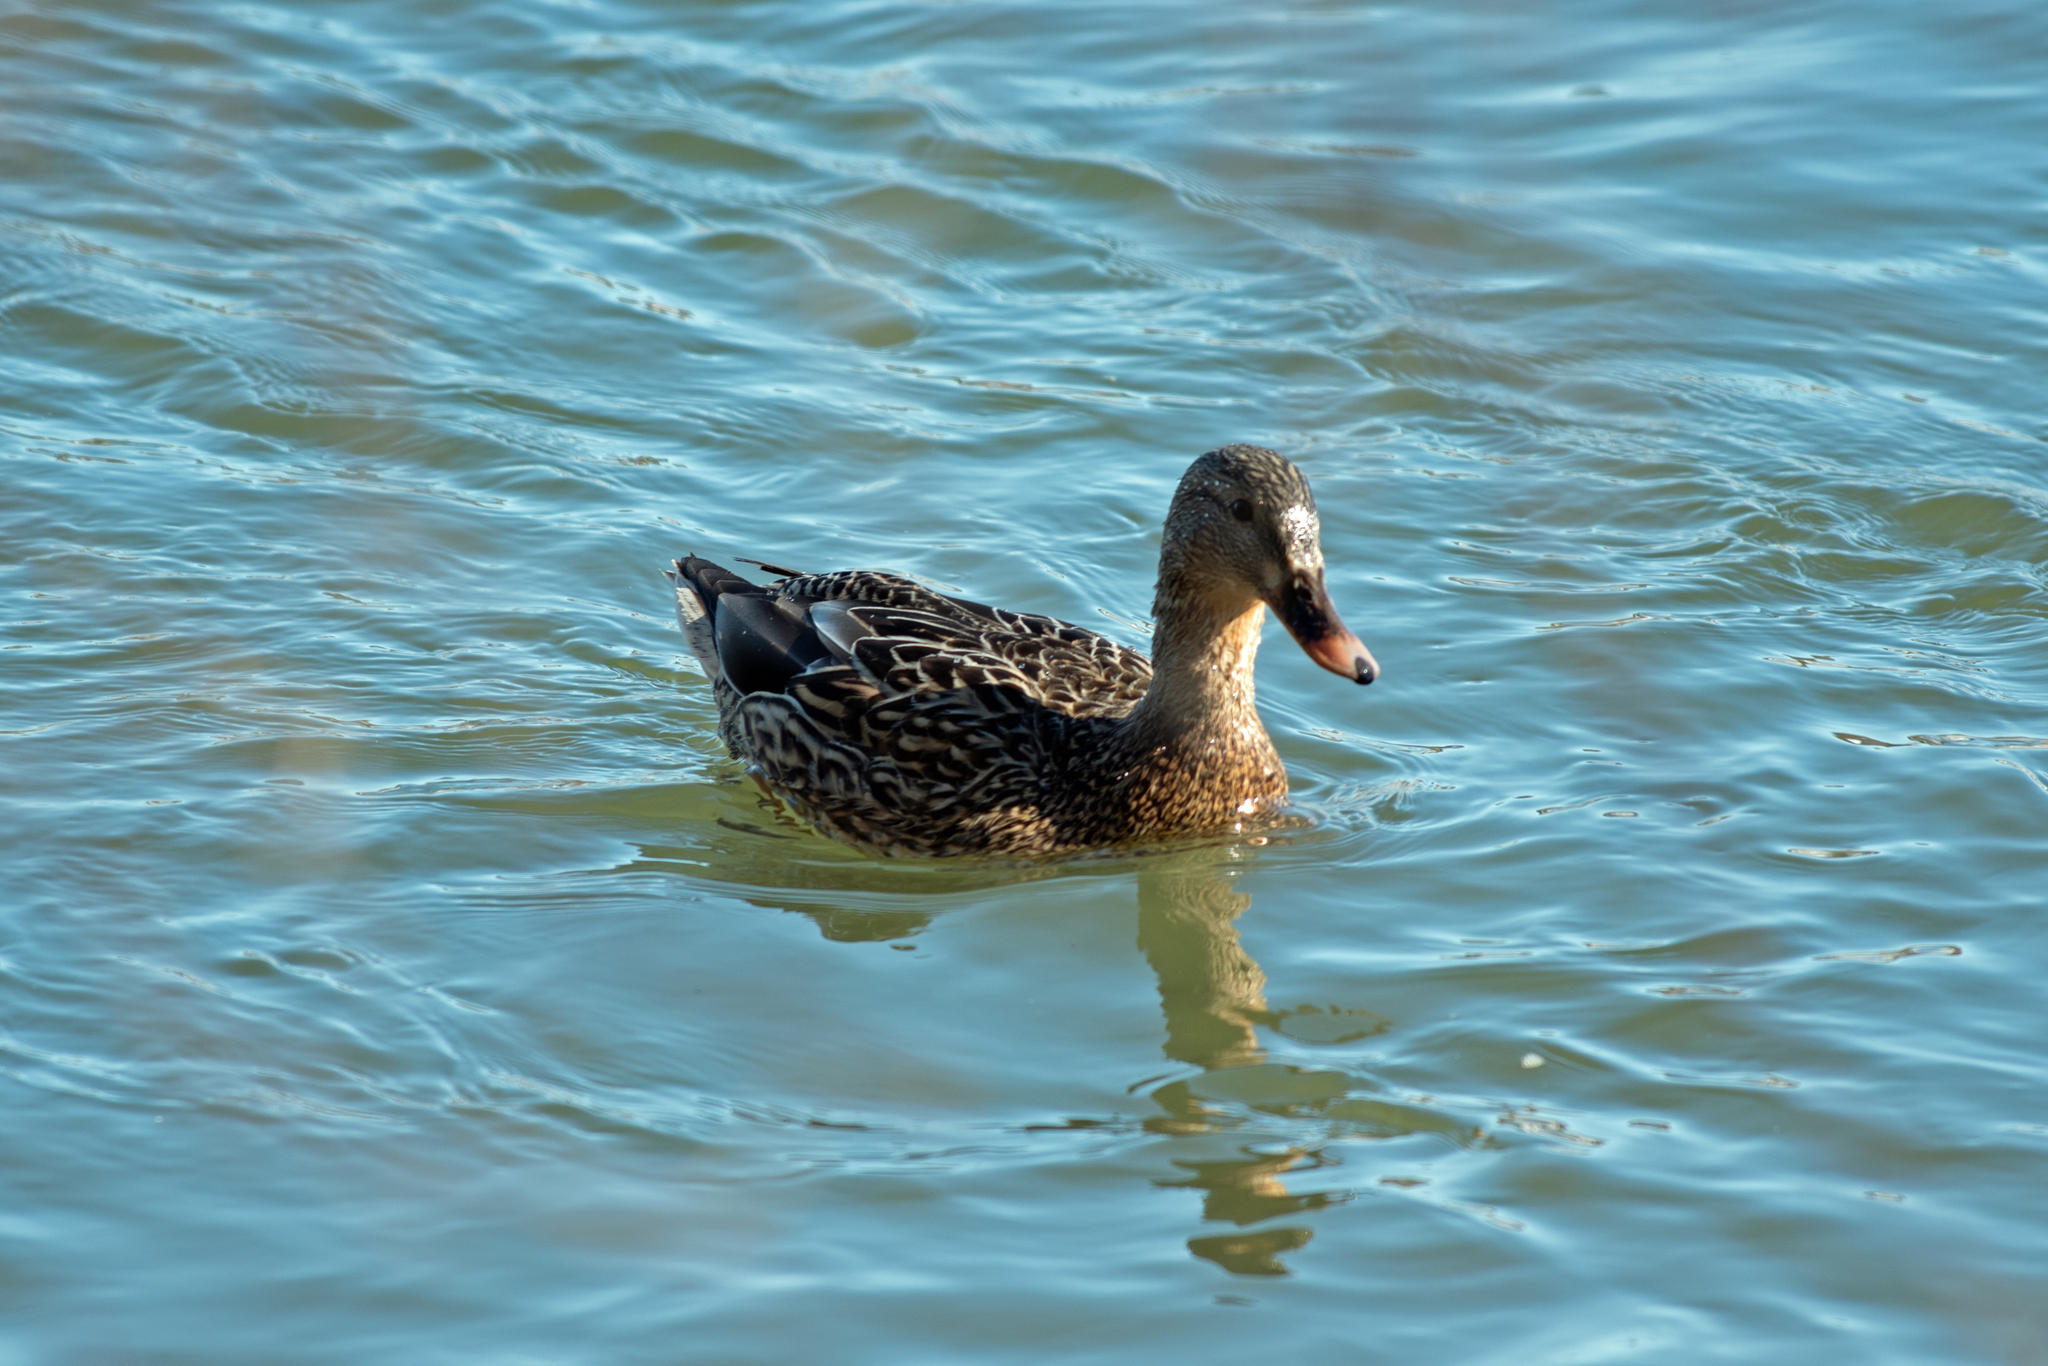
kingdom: Animalia
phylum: Chordata
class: Aves
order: Anseriformes
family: Anatidae
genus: Anas
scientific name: Anas platyrhynchos
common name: Mallard
